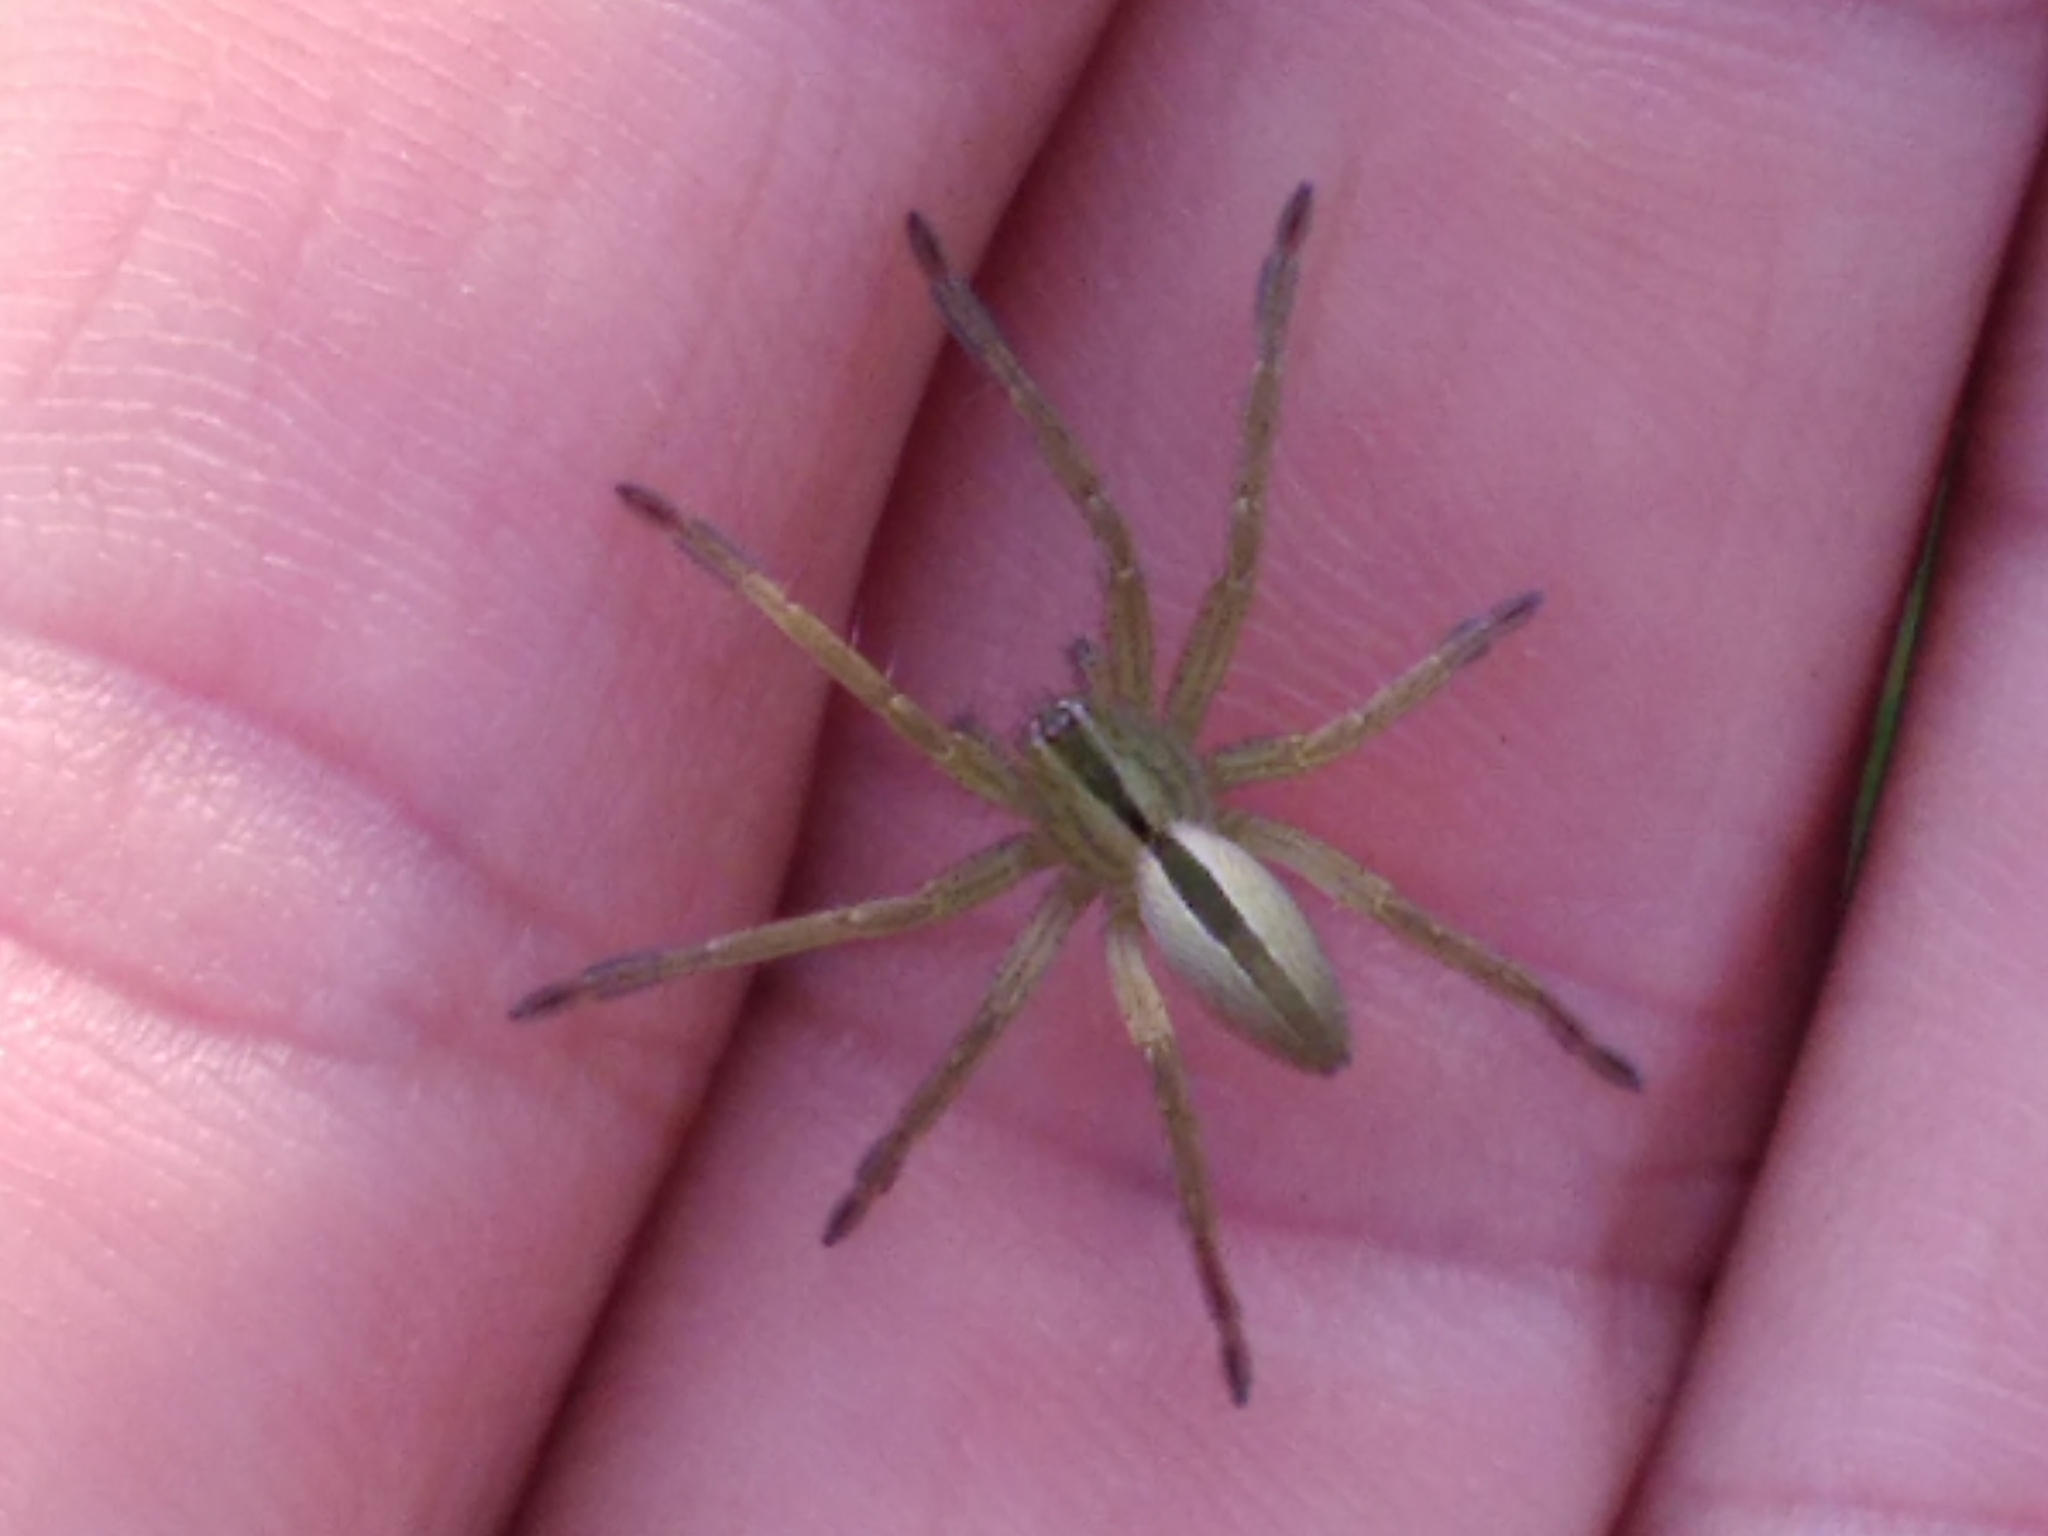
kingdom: Animalia
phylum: Arthropoda
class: Arachnida
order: Araneae
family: Sparassidae
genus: Micrommata
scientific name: Micrommata ligurina
